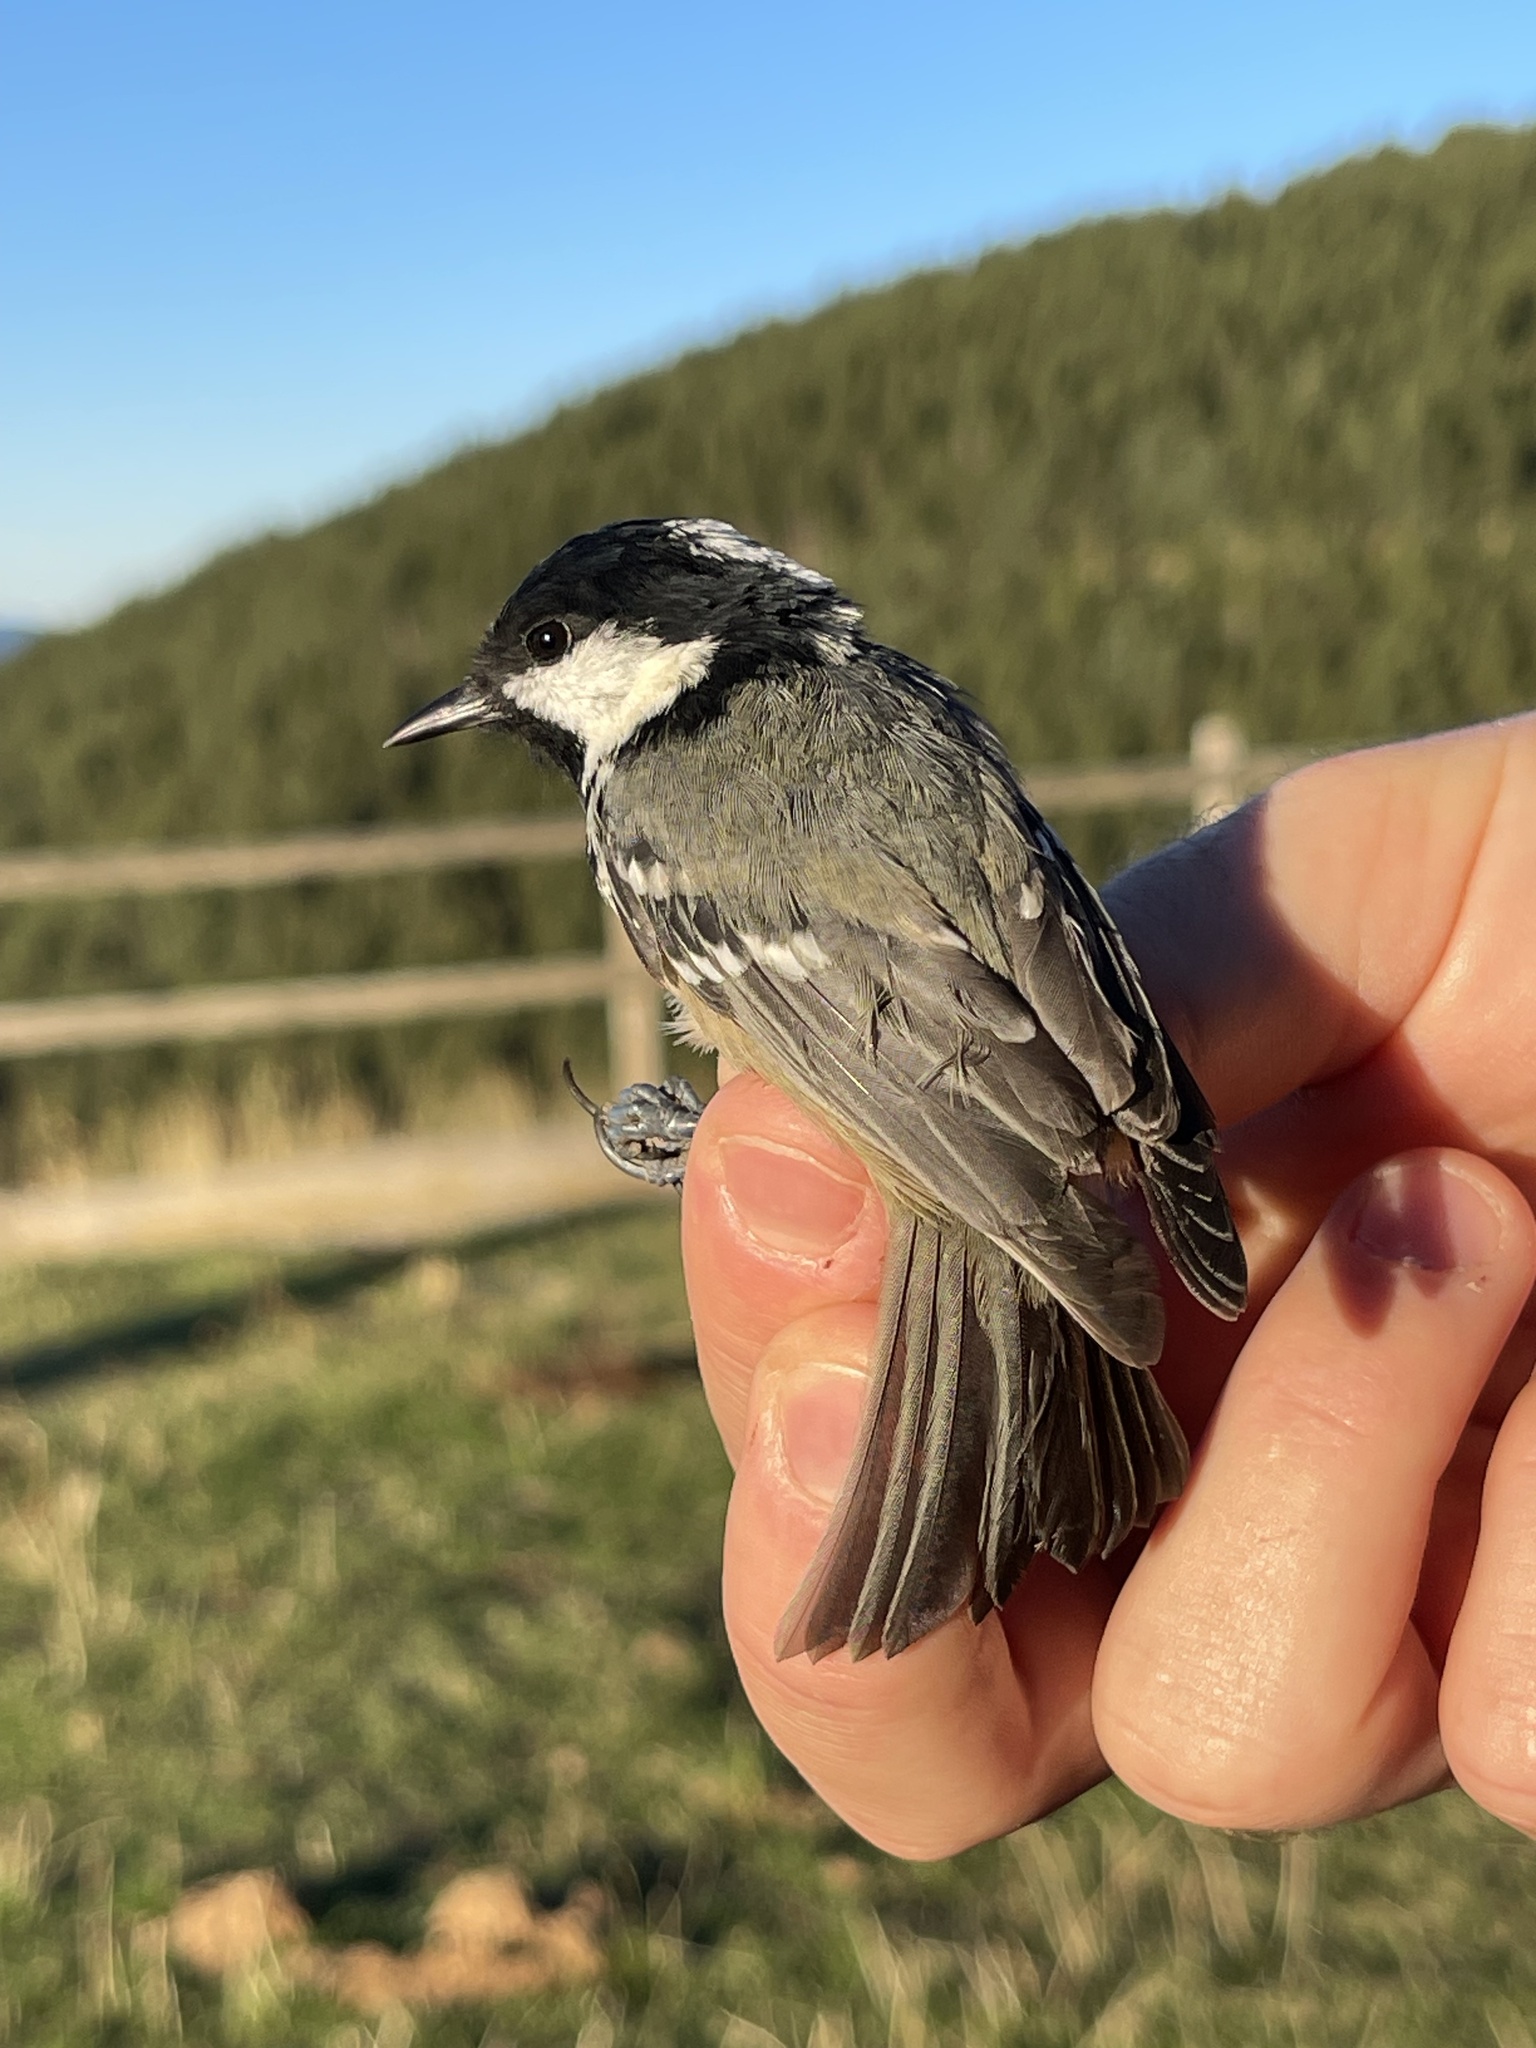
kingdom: Animalia
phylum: Chordata
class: Aves
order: Passeriformes
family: Paridae
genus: Periparus
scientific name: Periparus ater
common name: Coal tit
